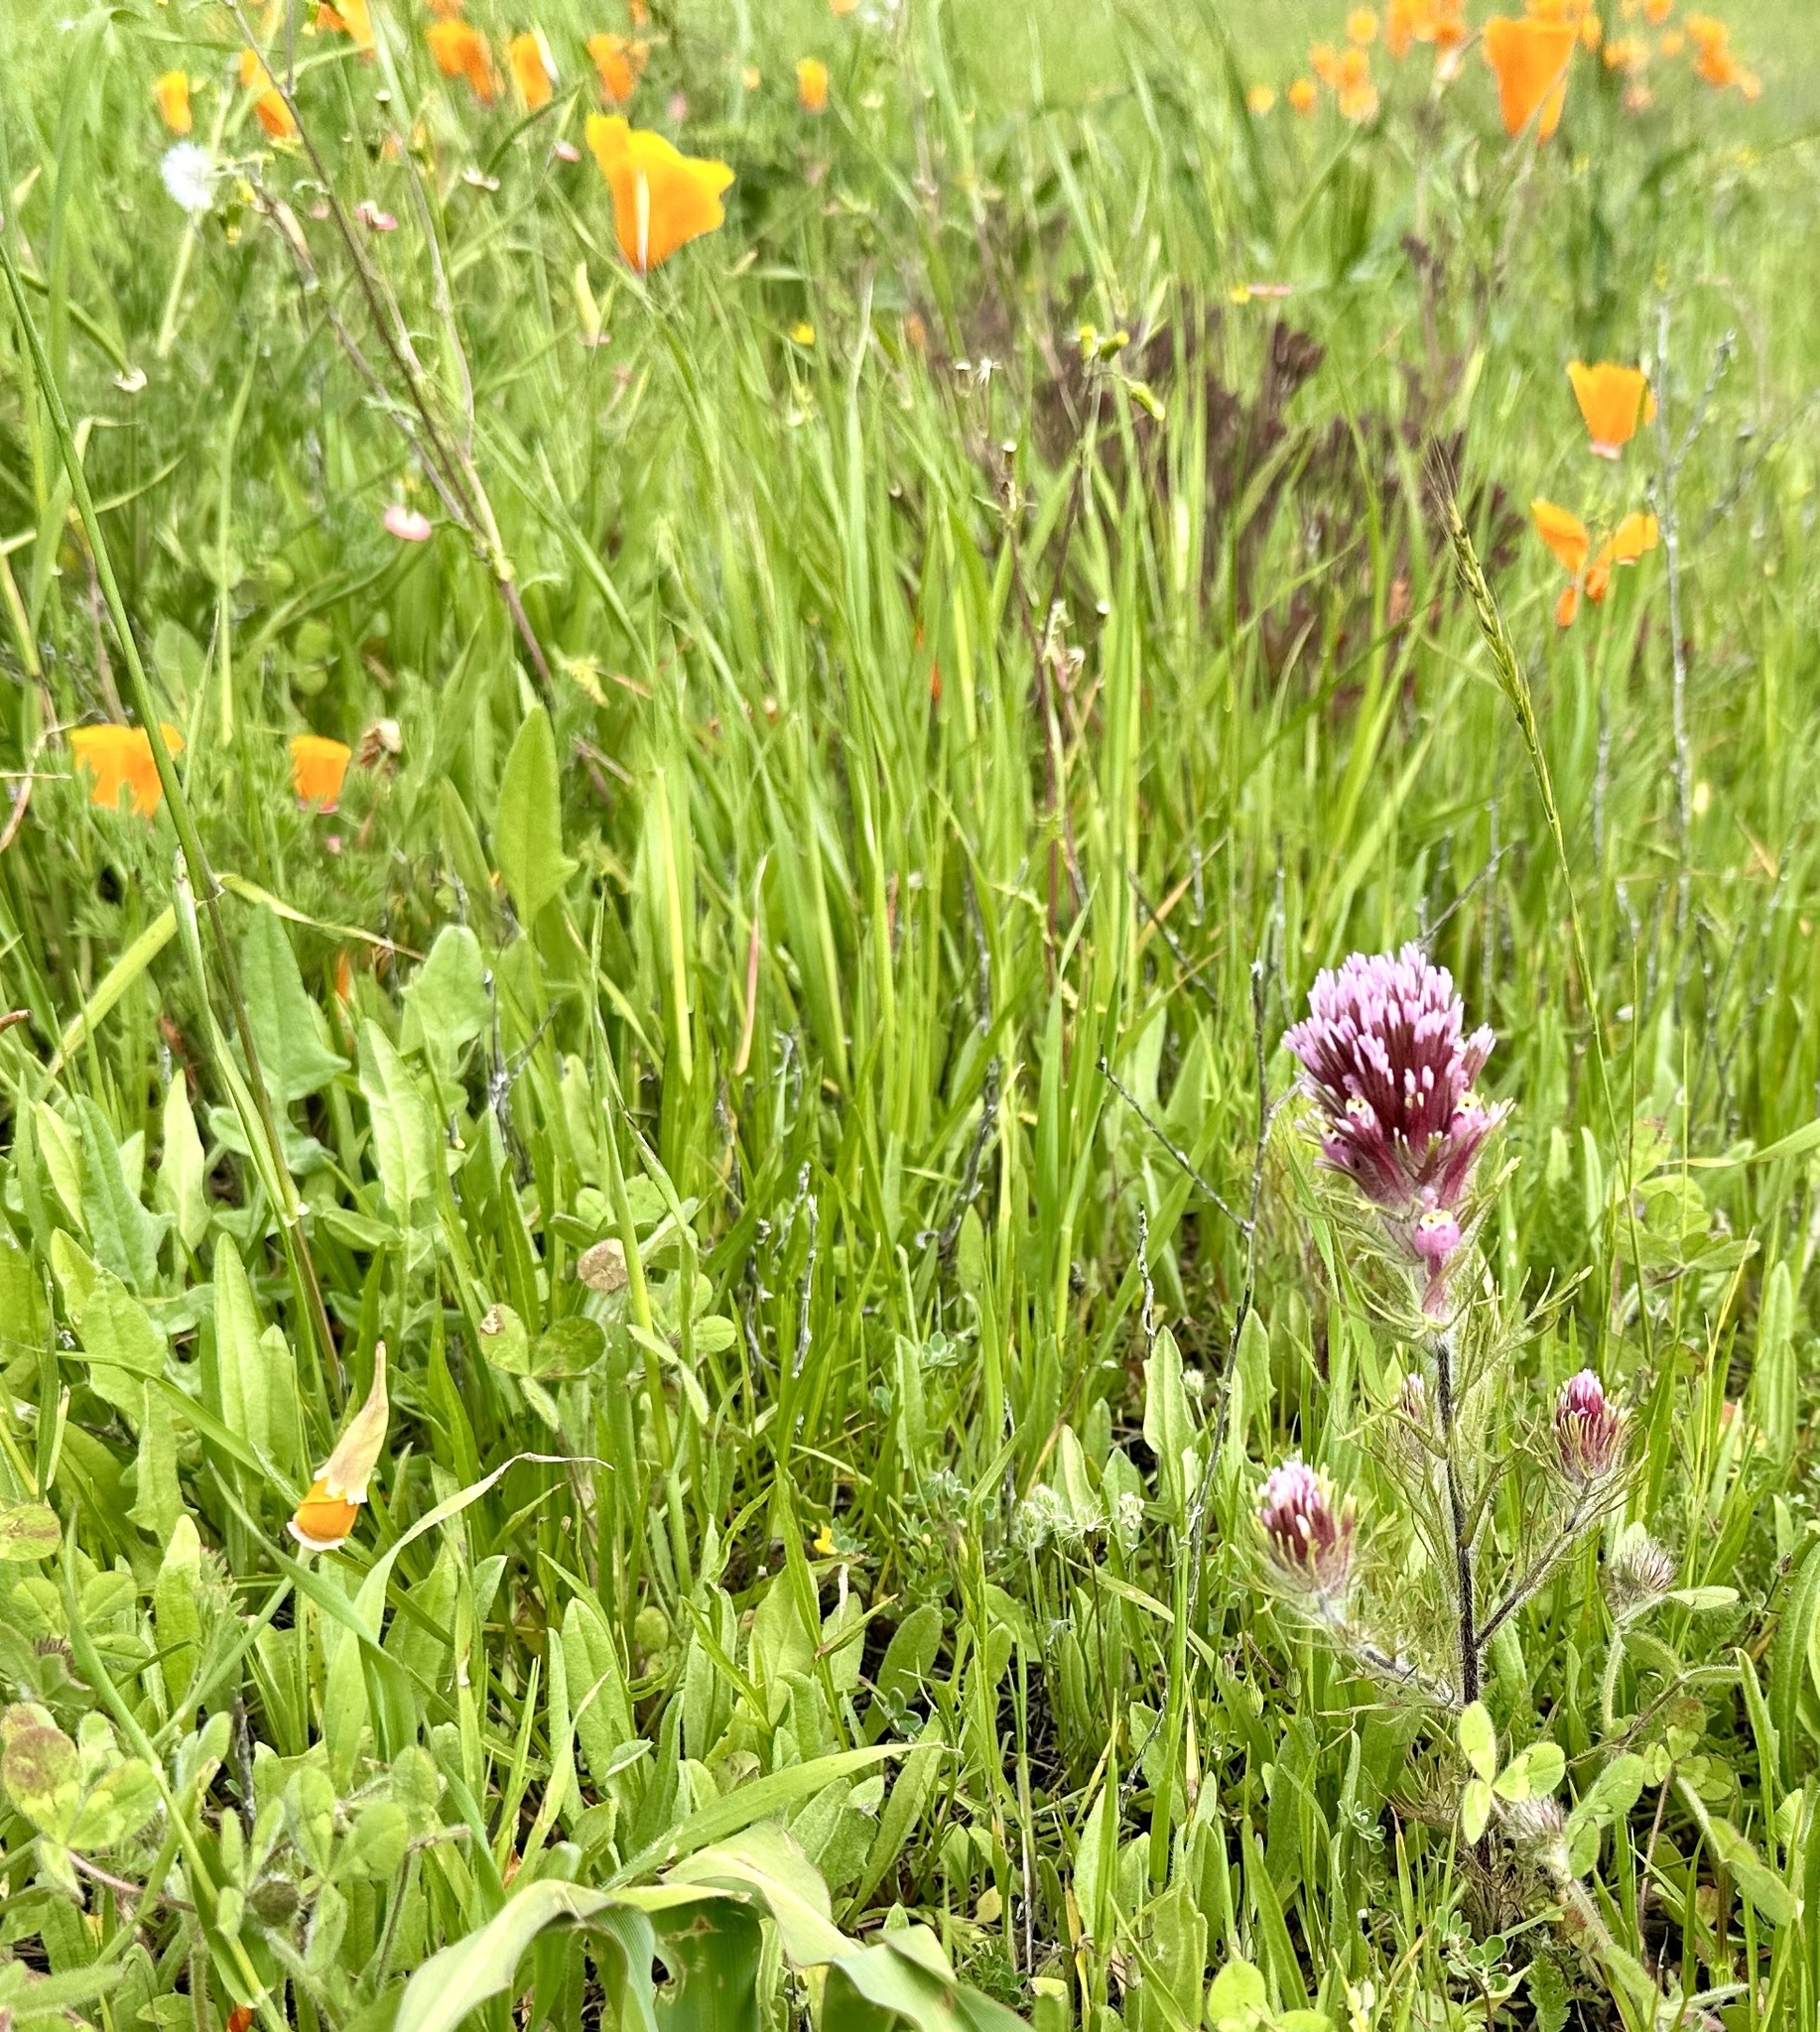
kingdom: Plantae
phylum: Tracheophyta
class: Magnoliopsida
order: Lamiales
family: Orobanchaceae
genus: Castilleja
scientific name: Castilleja exserta
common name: Purple owl-clover
